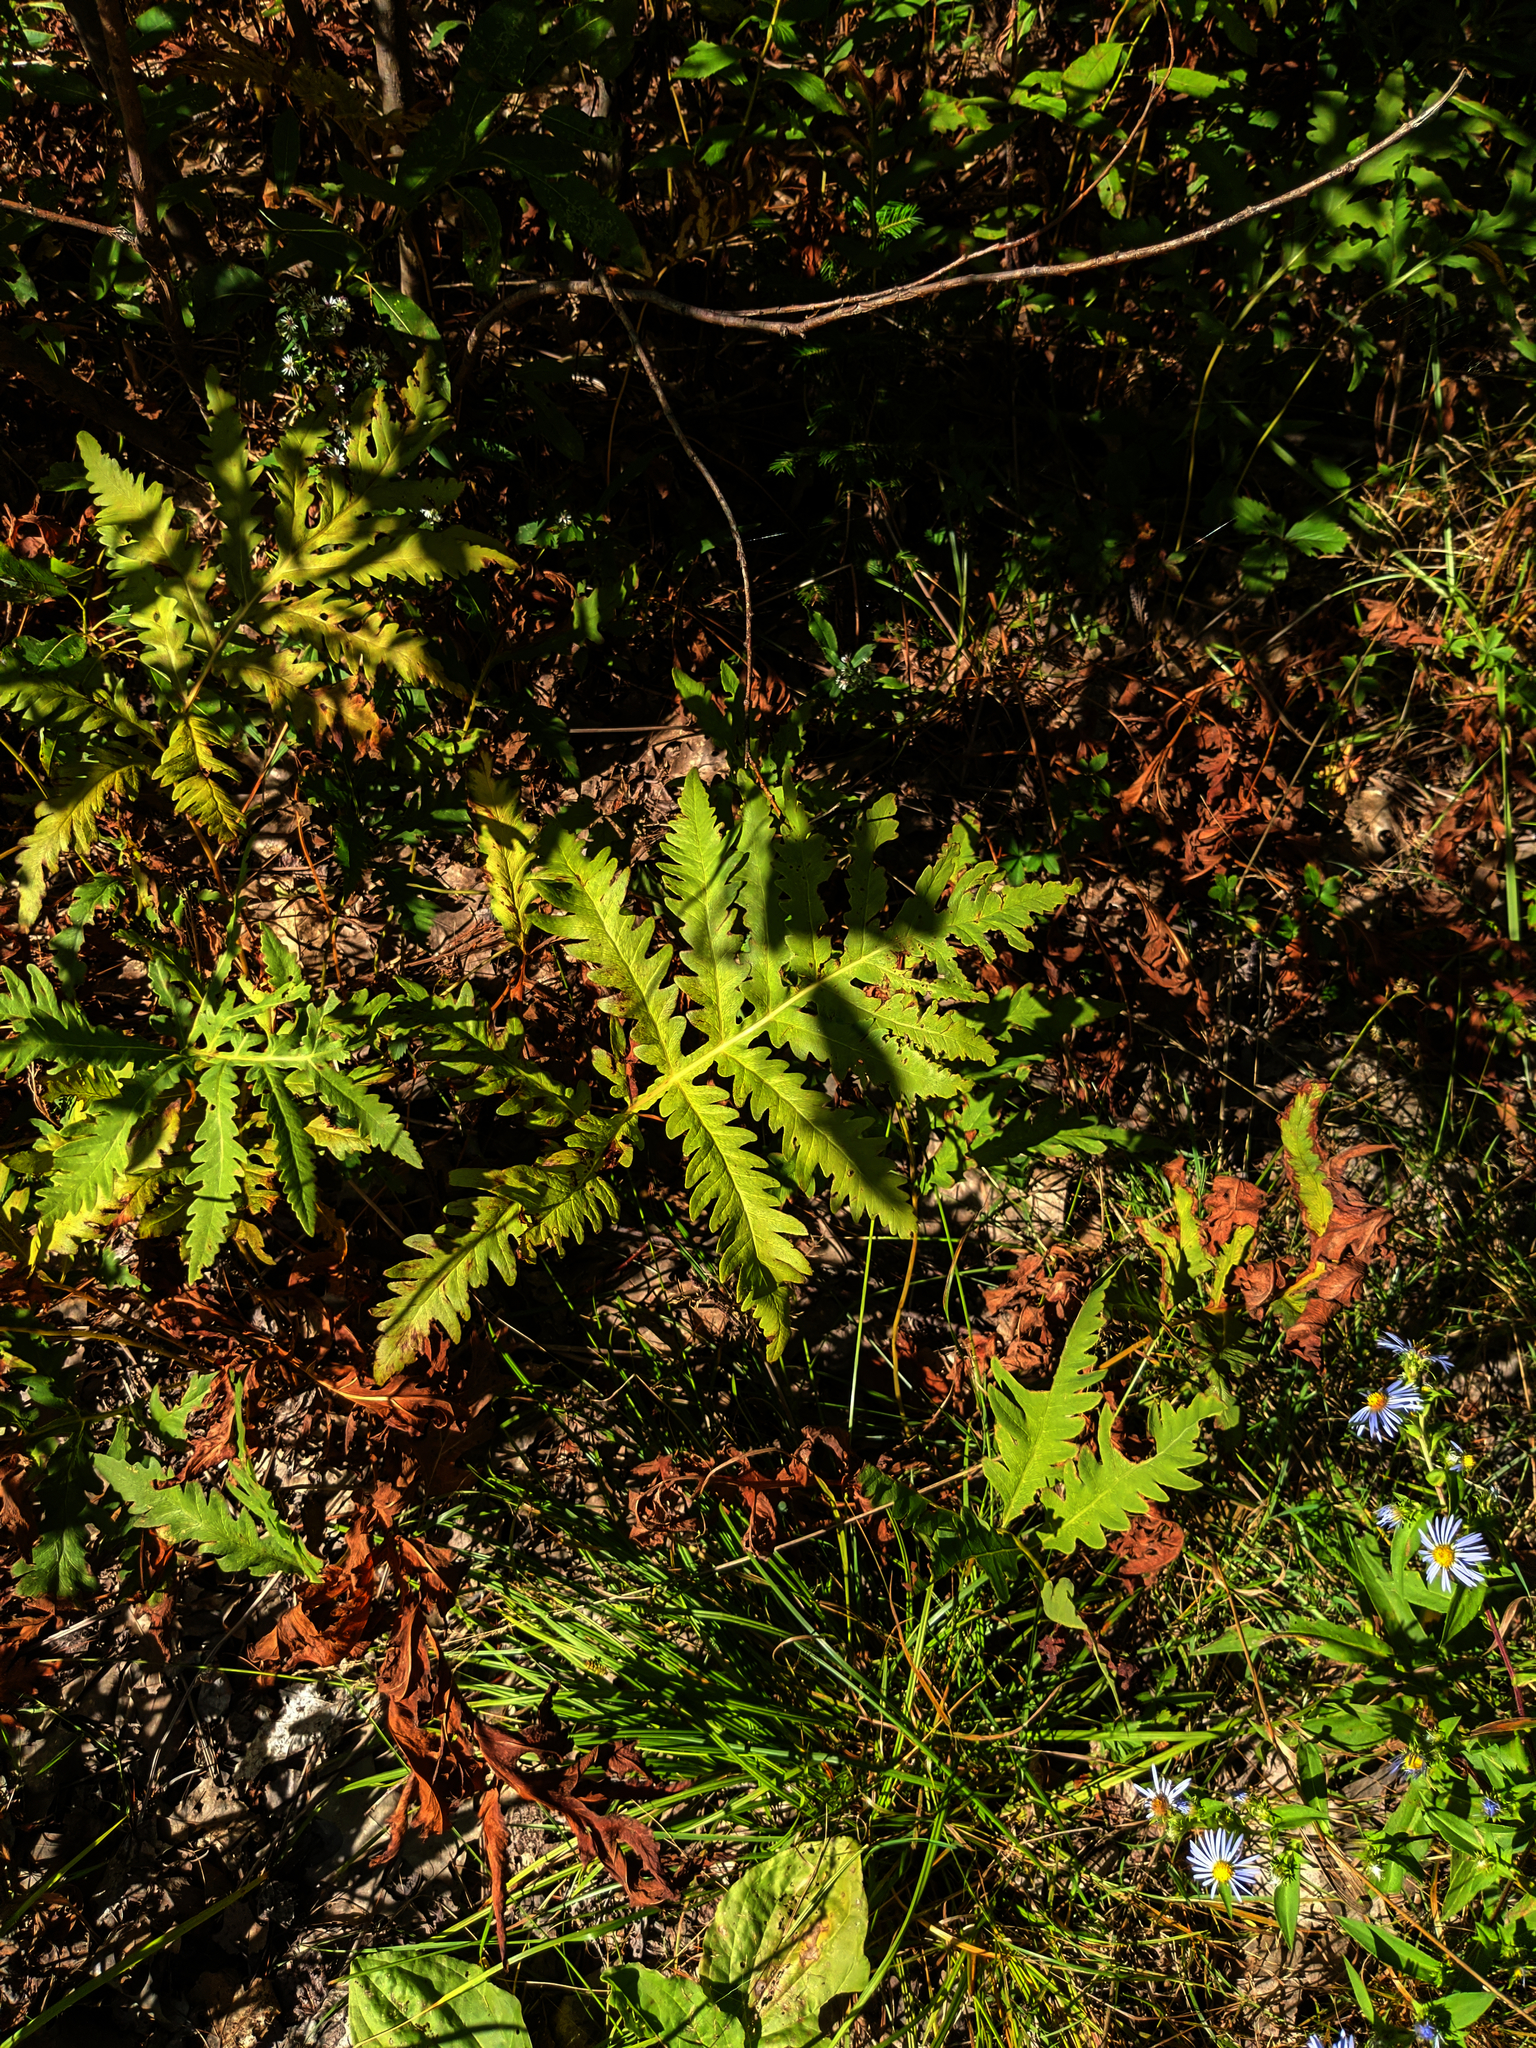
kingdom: Plantae
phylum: Tracheophyta
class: Polypodiopsida
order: Polypodiales
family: Onocleaceae
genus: Onoclea
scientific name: Onoclea sensibilis
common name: Sensitive fern
